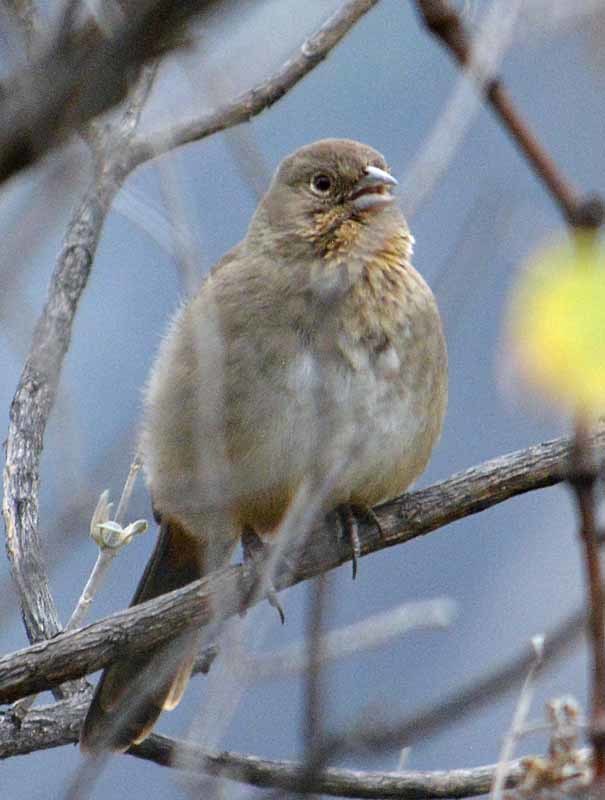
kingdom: Animalia
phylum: Chordata
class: Aves
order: Passeriformes
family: Passerellidae
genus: Melozone
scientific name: Melozone fusca
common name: Canyon towhee
